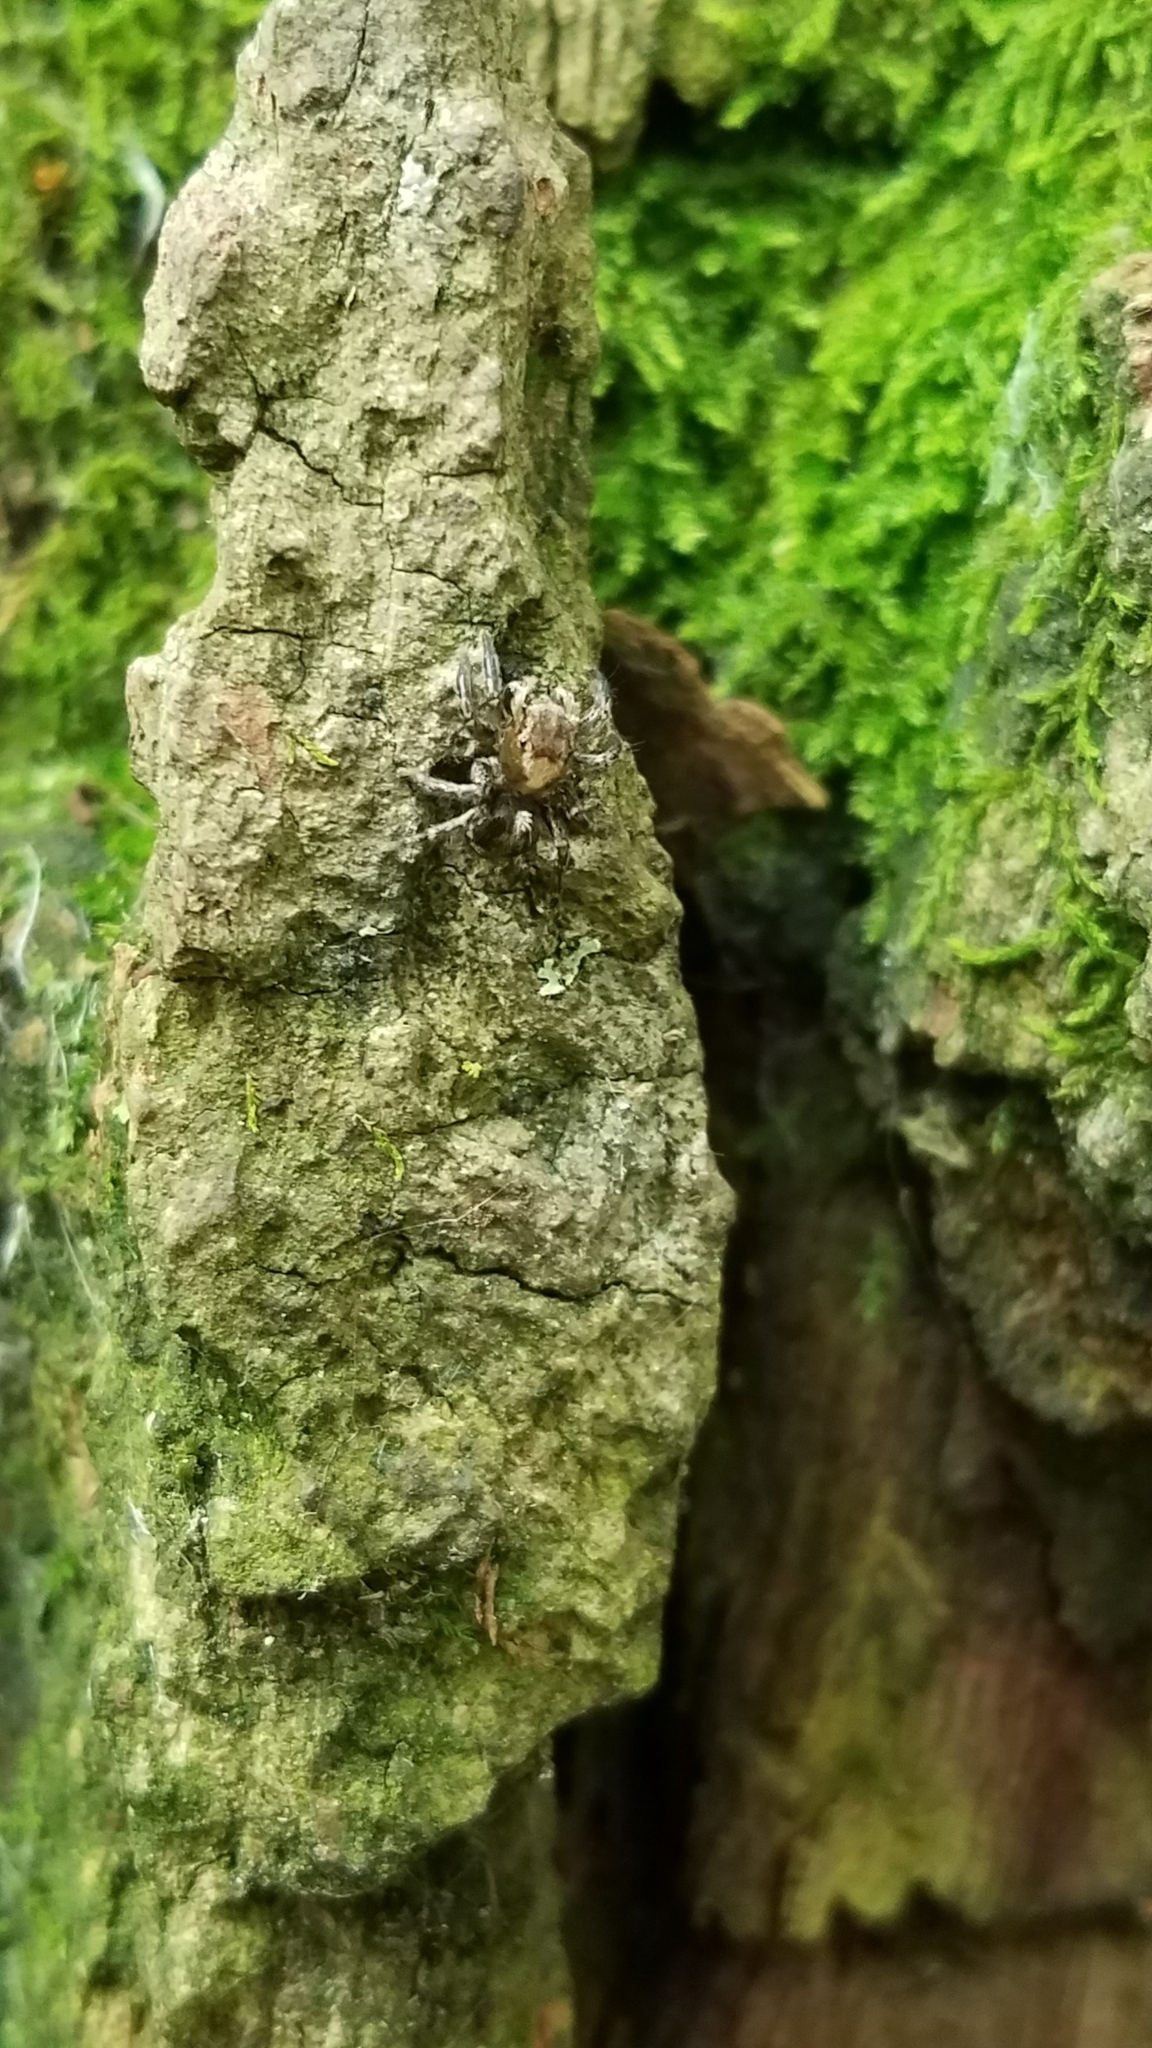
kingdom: Animalia
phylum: Arthropoda
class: Arachnida
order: Araneae
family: Salticidae
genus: Naphrys
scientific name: Naphrys pulex
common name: Flea jumping spider
